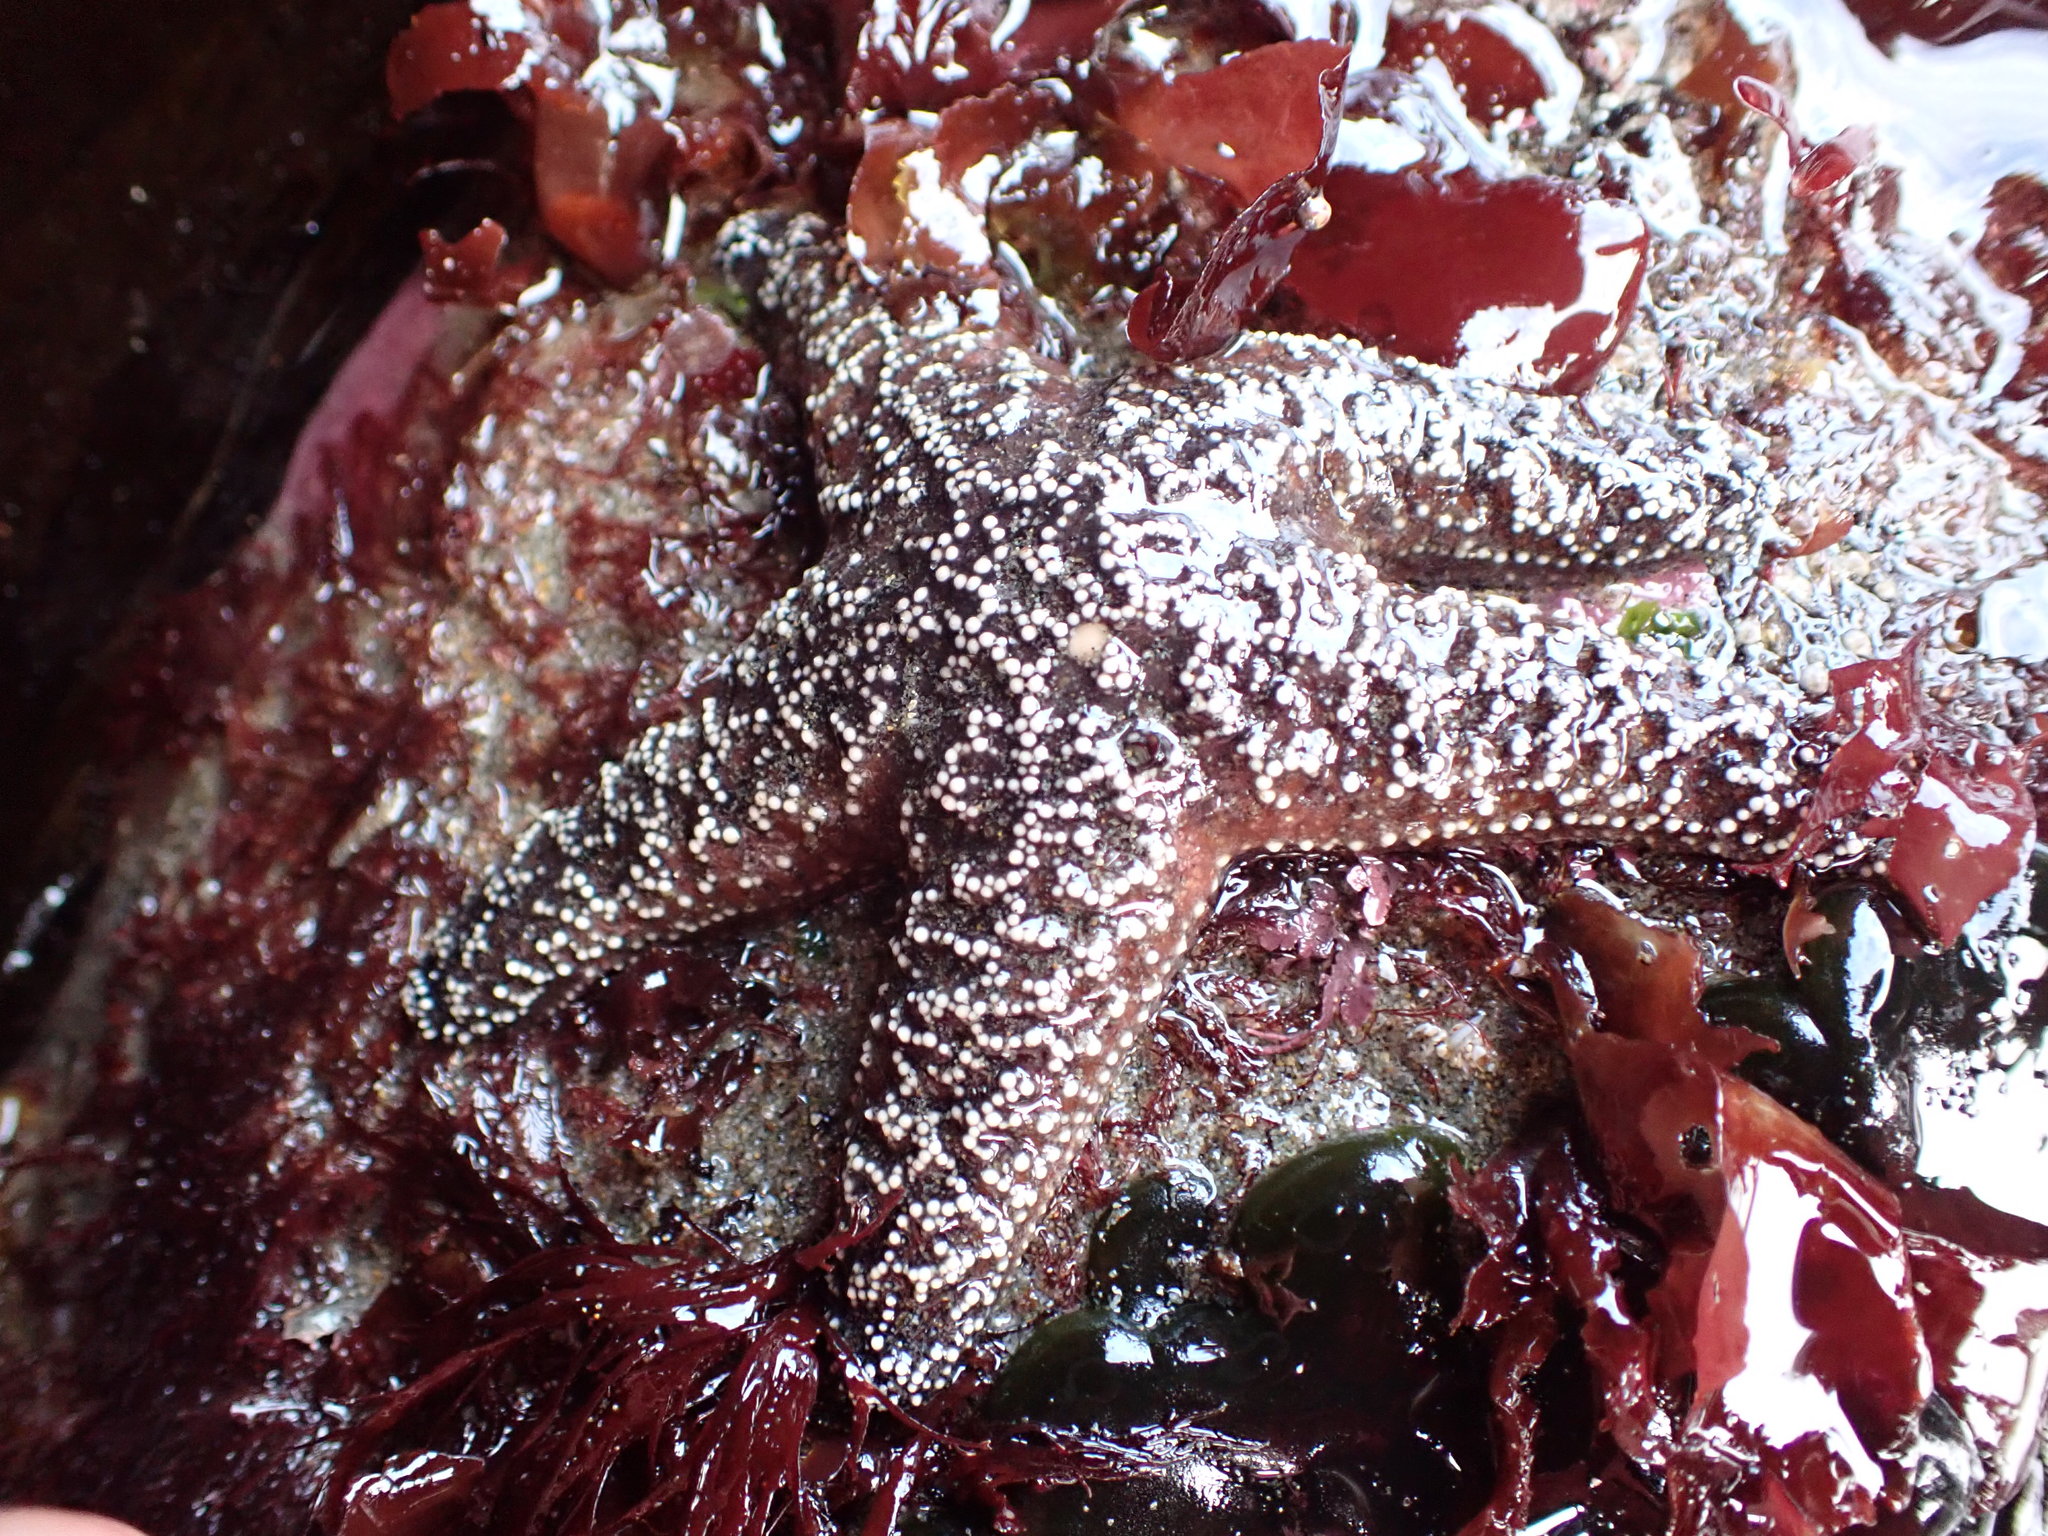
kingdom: Animalia
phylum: Echinodermata
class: Asteroidea
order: Forcipulatida
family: Asteriidae
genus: Pisaster
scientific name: Pisaster ochraceus
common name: Ochre stars
